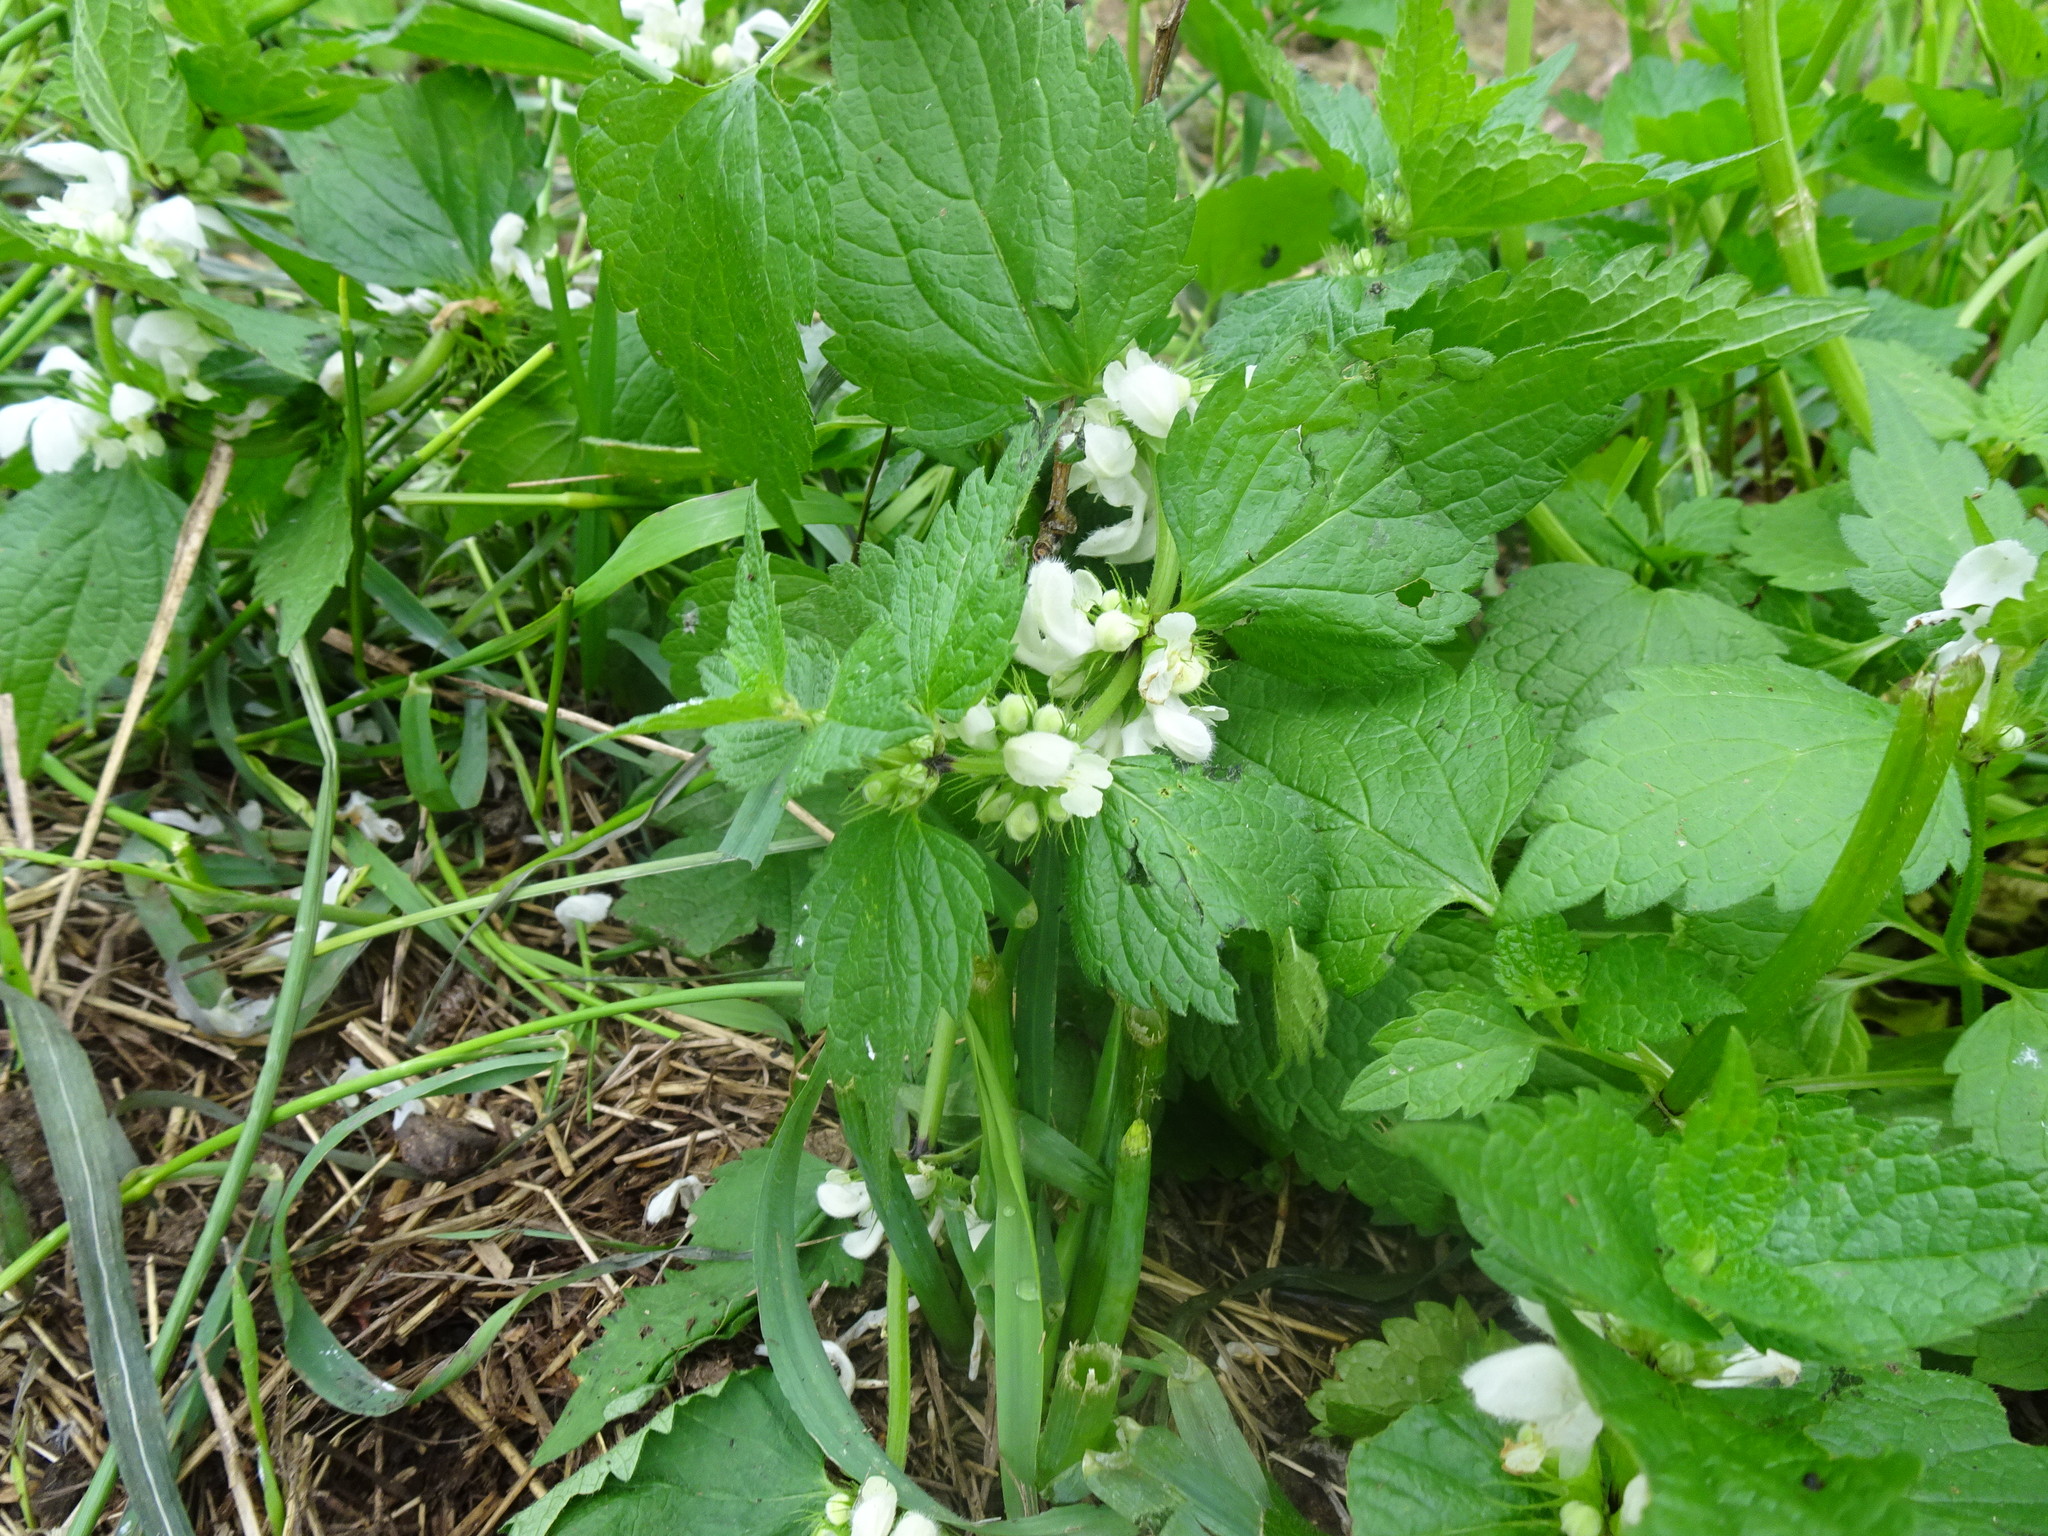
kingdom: Plantae
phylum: Tracheophyta
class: Magnoliopsida
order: Lamiales
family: Lamiaceae
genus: Lamium
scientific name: Lamium album
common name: White dead-nettle
